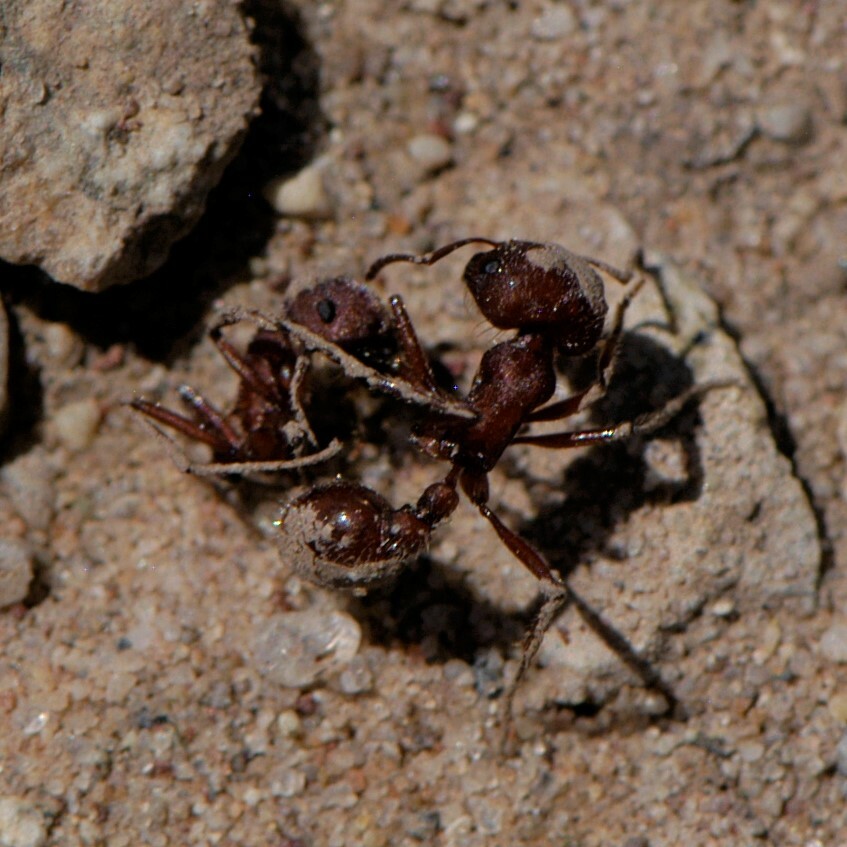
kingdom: Animalia
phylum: Arthropoda
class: Insecta
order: Hymenoptera
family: Formicidae
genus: Pogonomyrmex
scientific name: Pogonomyrmex
